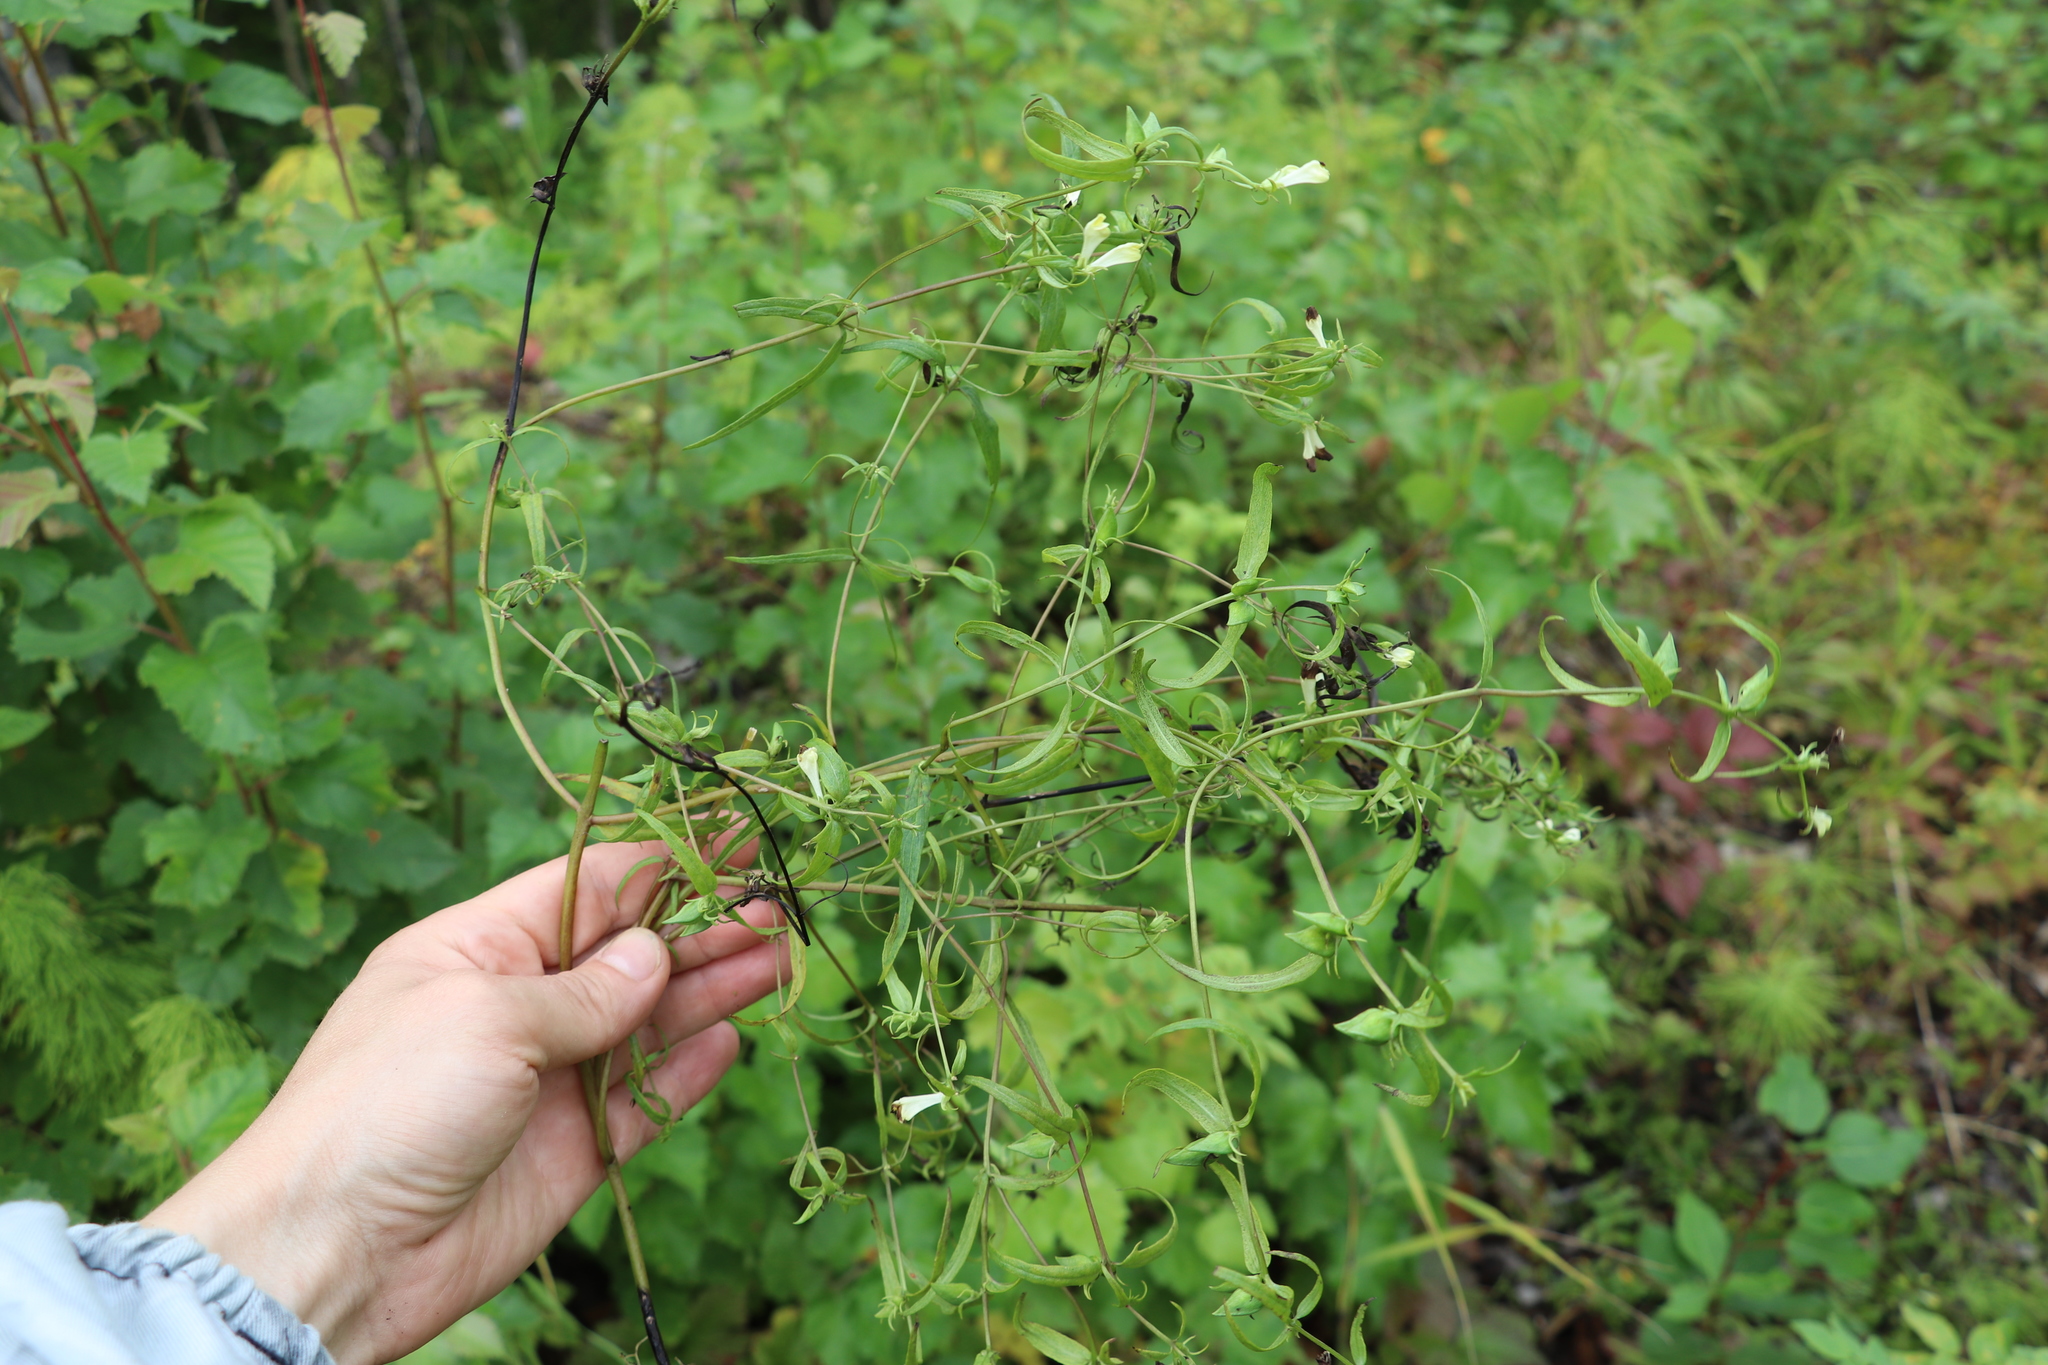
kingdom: Plantae
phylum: Tracheophyta
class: Magnoliopsida
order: Lamiales
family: Orobanchaceae
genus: Melampyrum
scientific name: Melampyrum pratense
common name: Common cow-wheat
